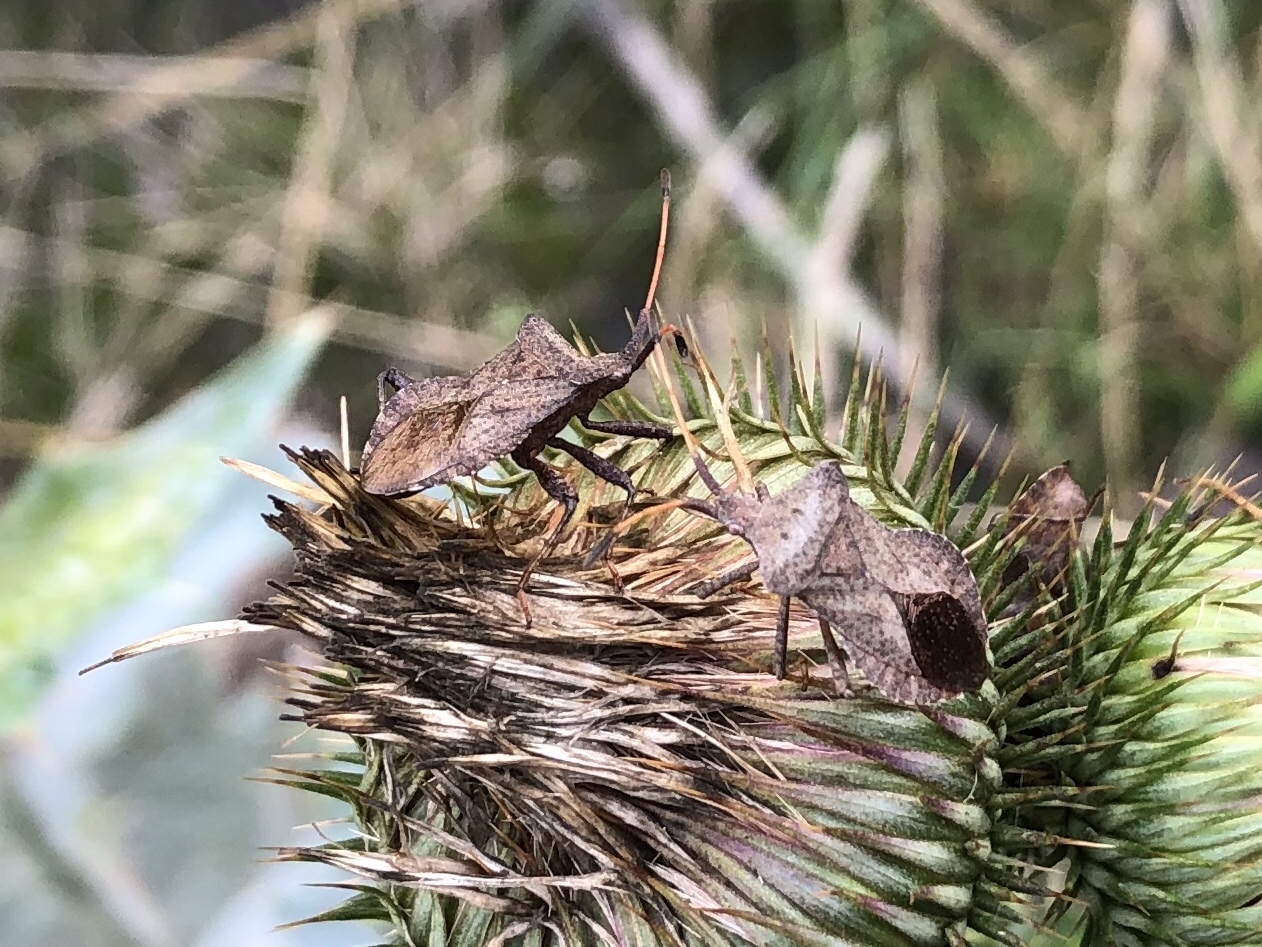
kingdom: Animalia
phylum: Arthropoda
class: Insecta
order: Hemiptera
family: Coreidae
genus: Coreus
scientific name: Coreus marginatus
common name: Dock bug
